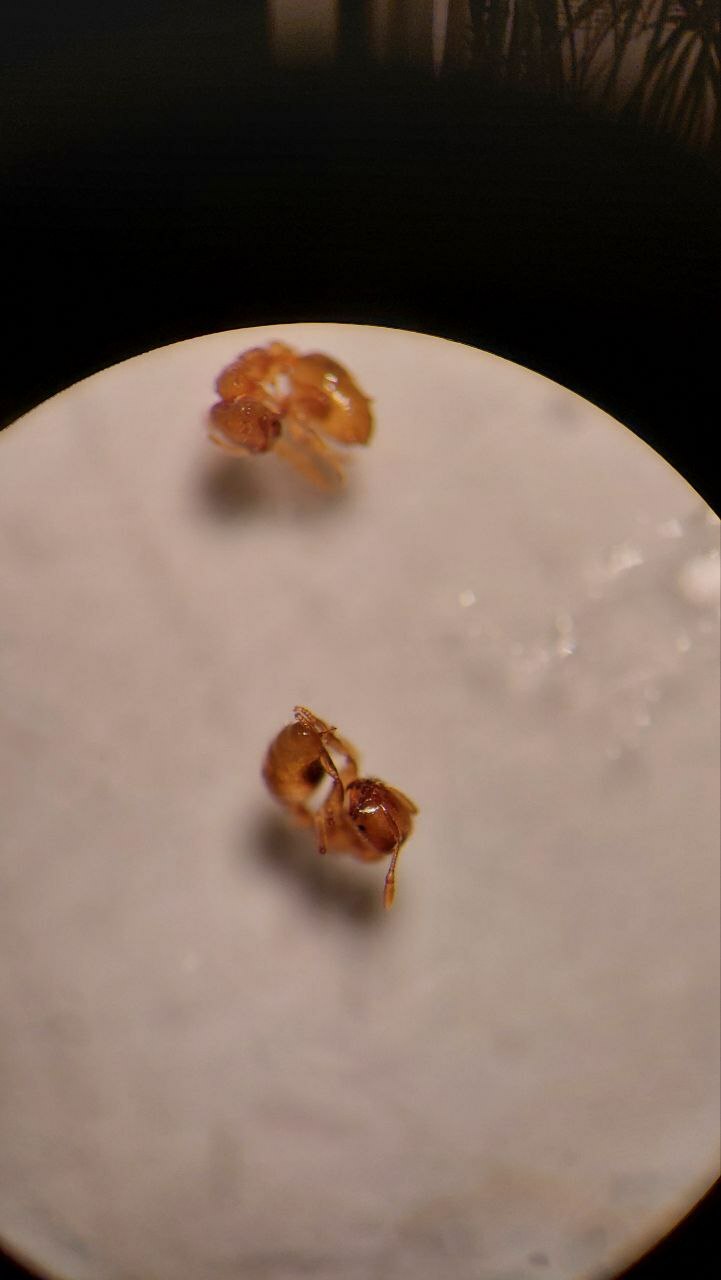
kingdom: Animalia
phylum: Arthropoda
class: Insecta
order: Hymenoptera
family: Formicidae
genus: Solenopsis
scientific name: Solenopsis fugax
